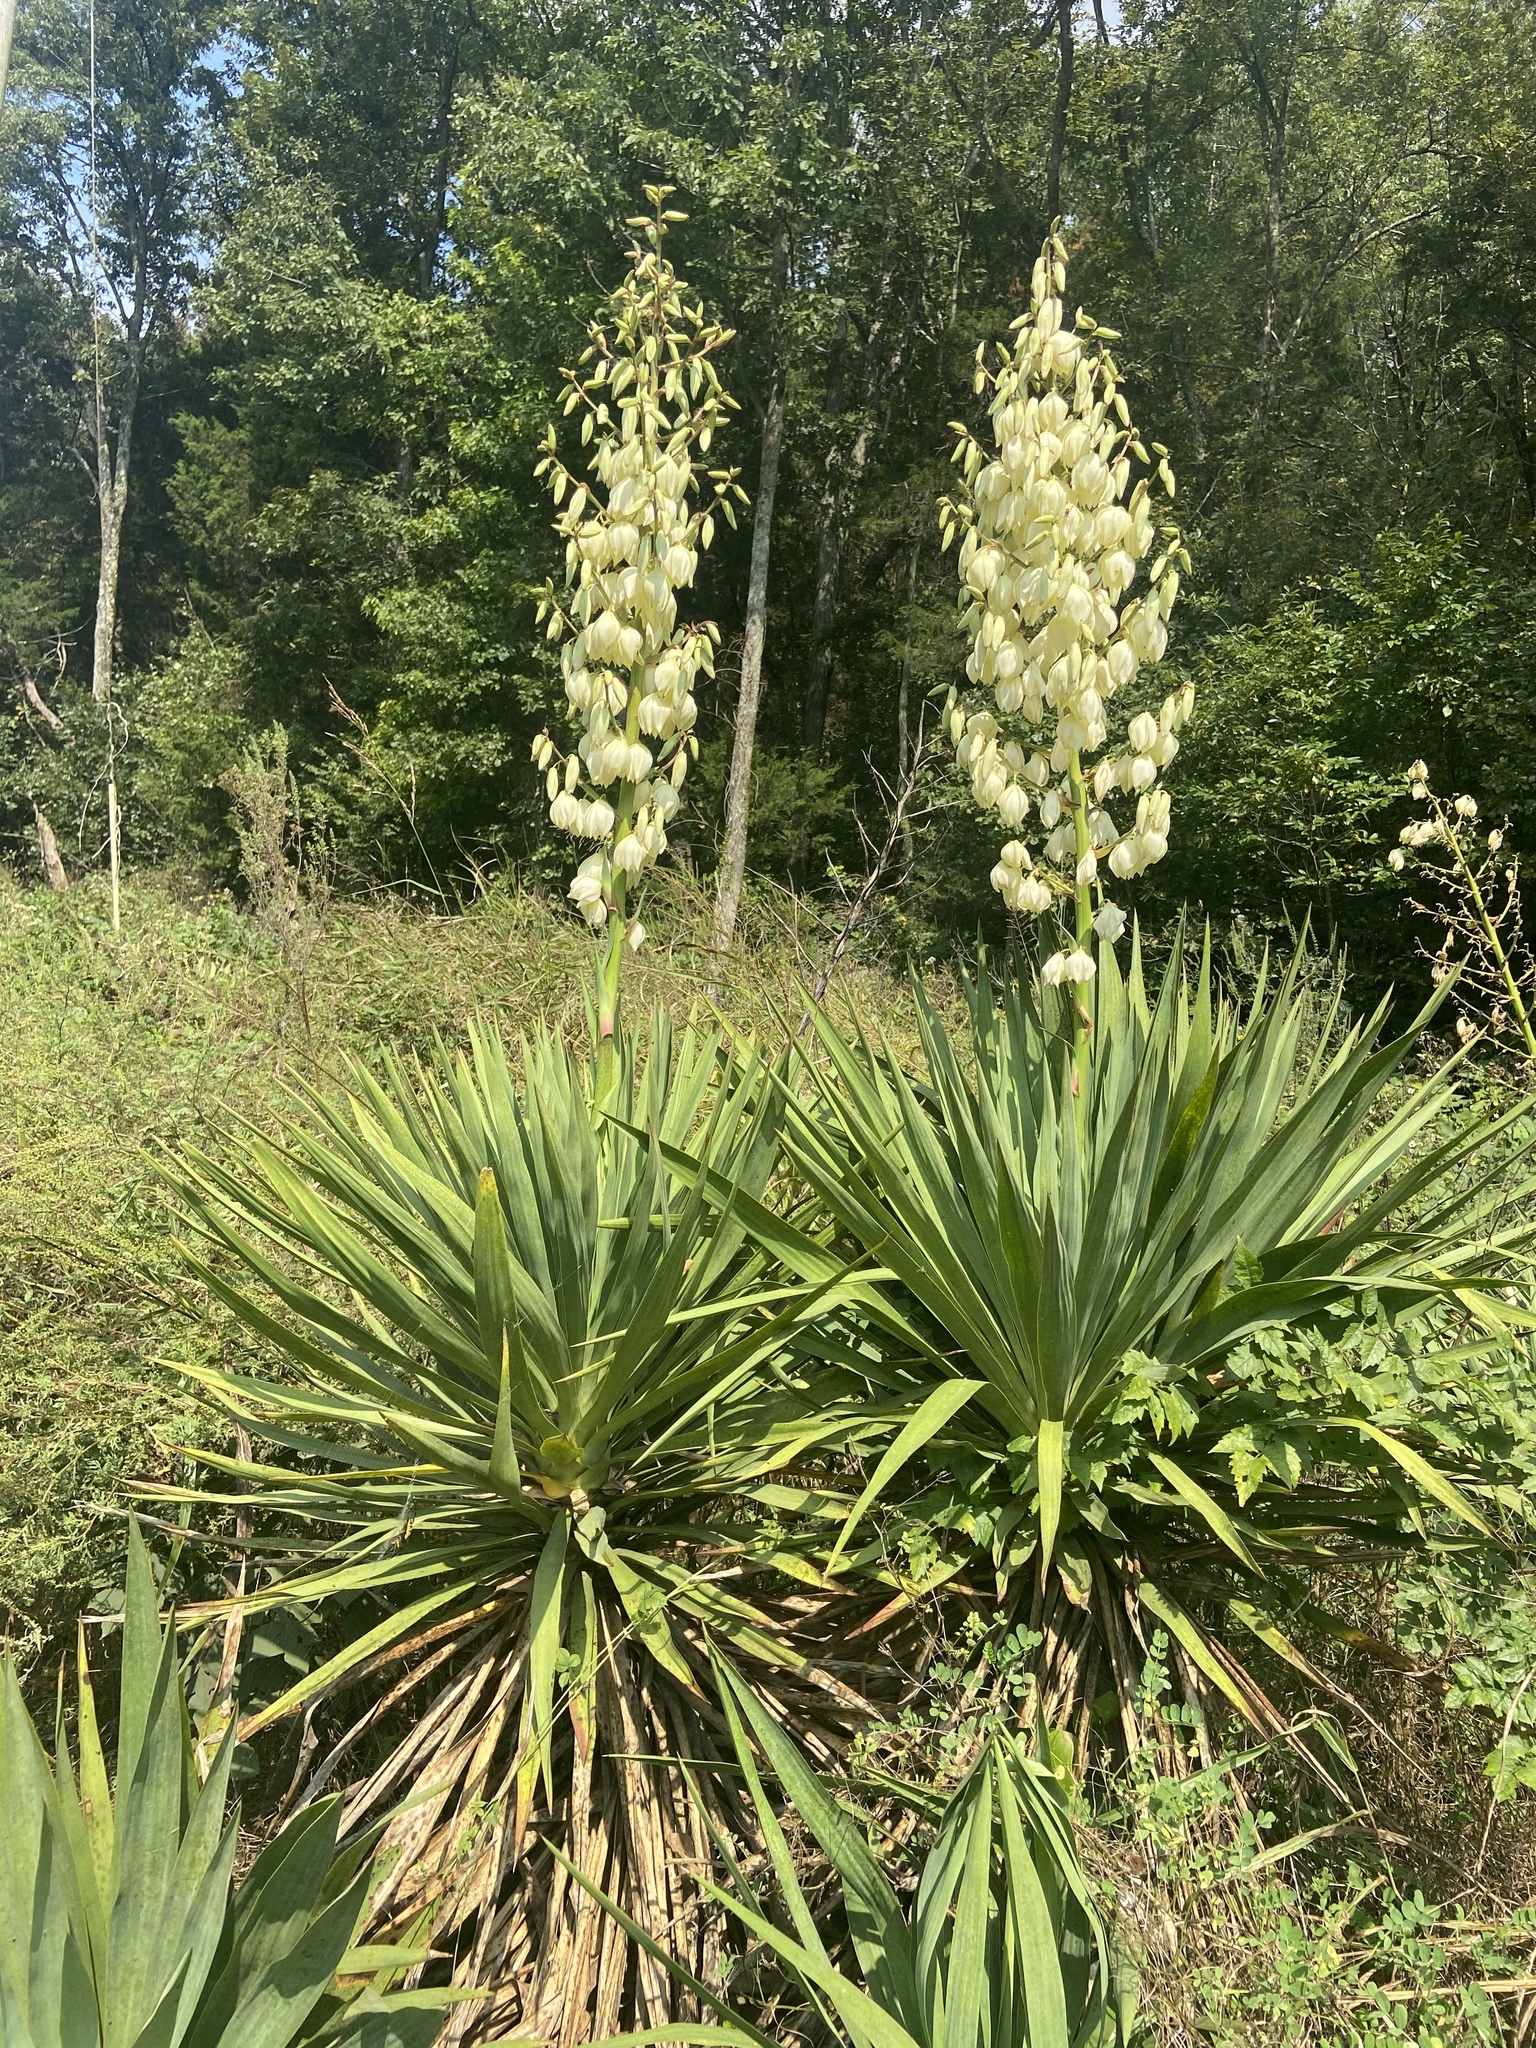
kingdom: Plantae
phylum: Tracheophyta
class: Liliopsida
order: Asparagales
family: Asparagaceae
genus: Yucca
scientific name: Yucca flaccida
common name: Adam's-needle
